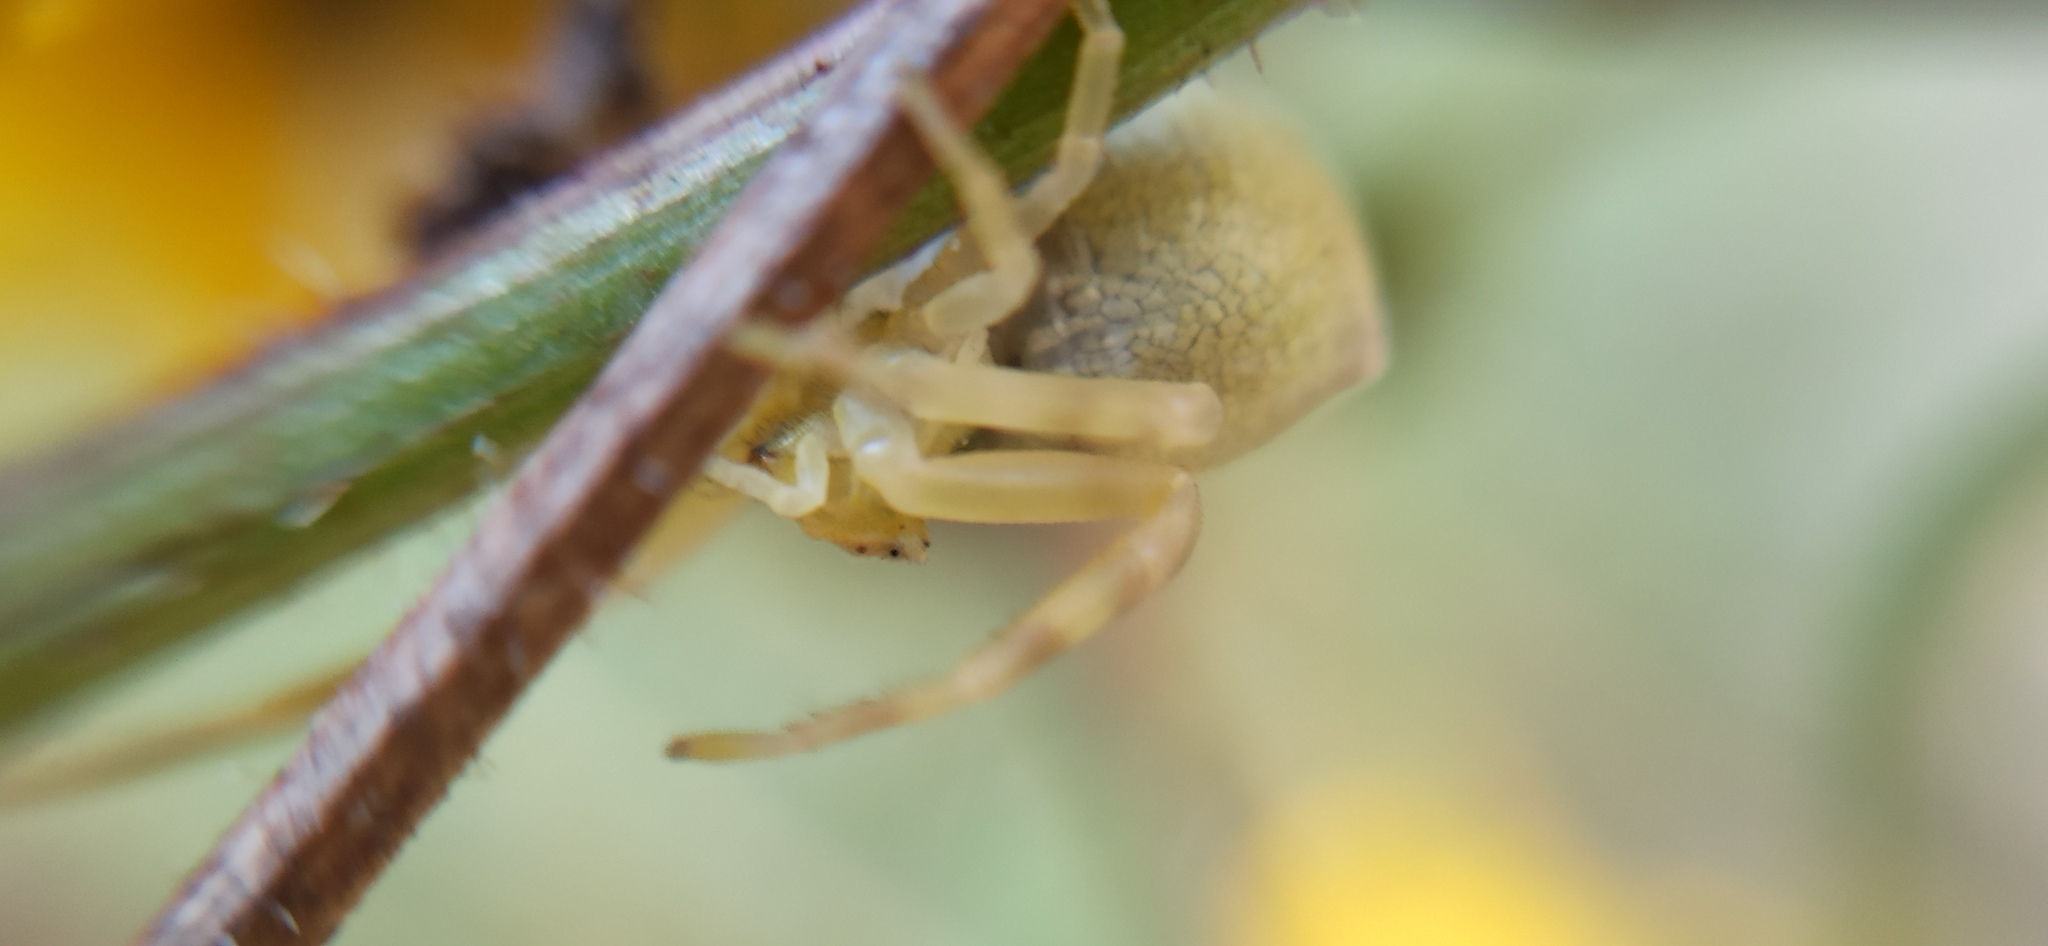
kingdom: Animalia
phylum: Arthropoda
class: Arachnida
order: Araneae
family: Thomisidae
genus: Thomisus
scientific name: Thomisus onustus
